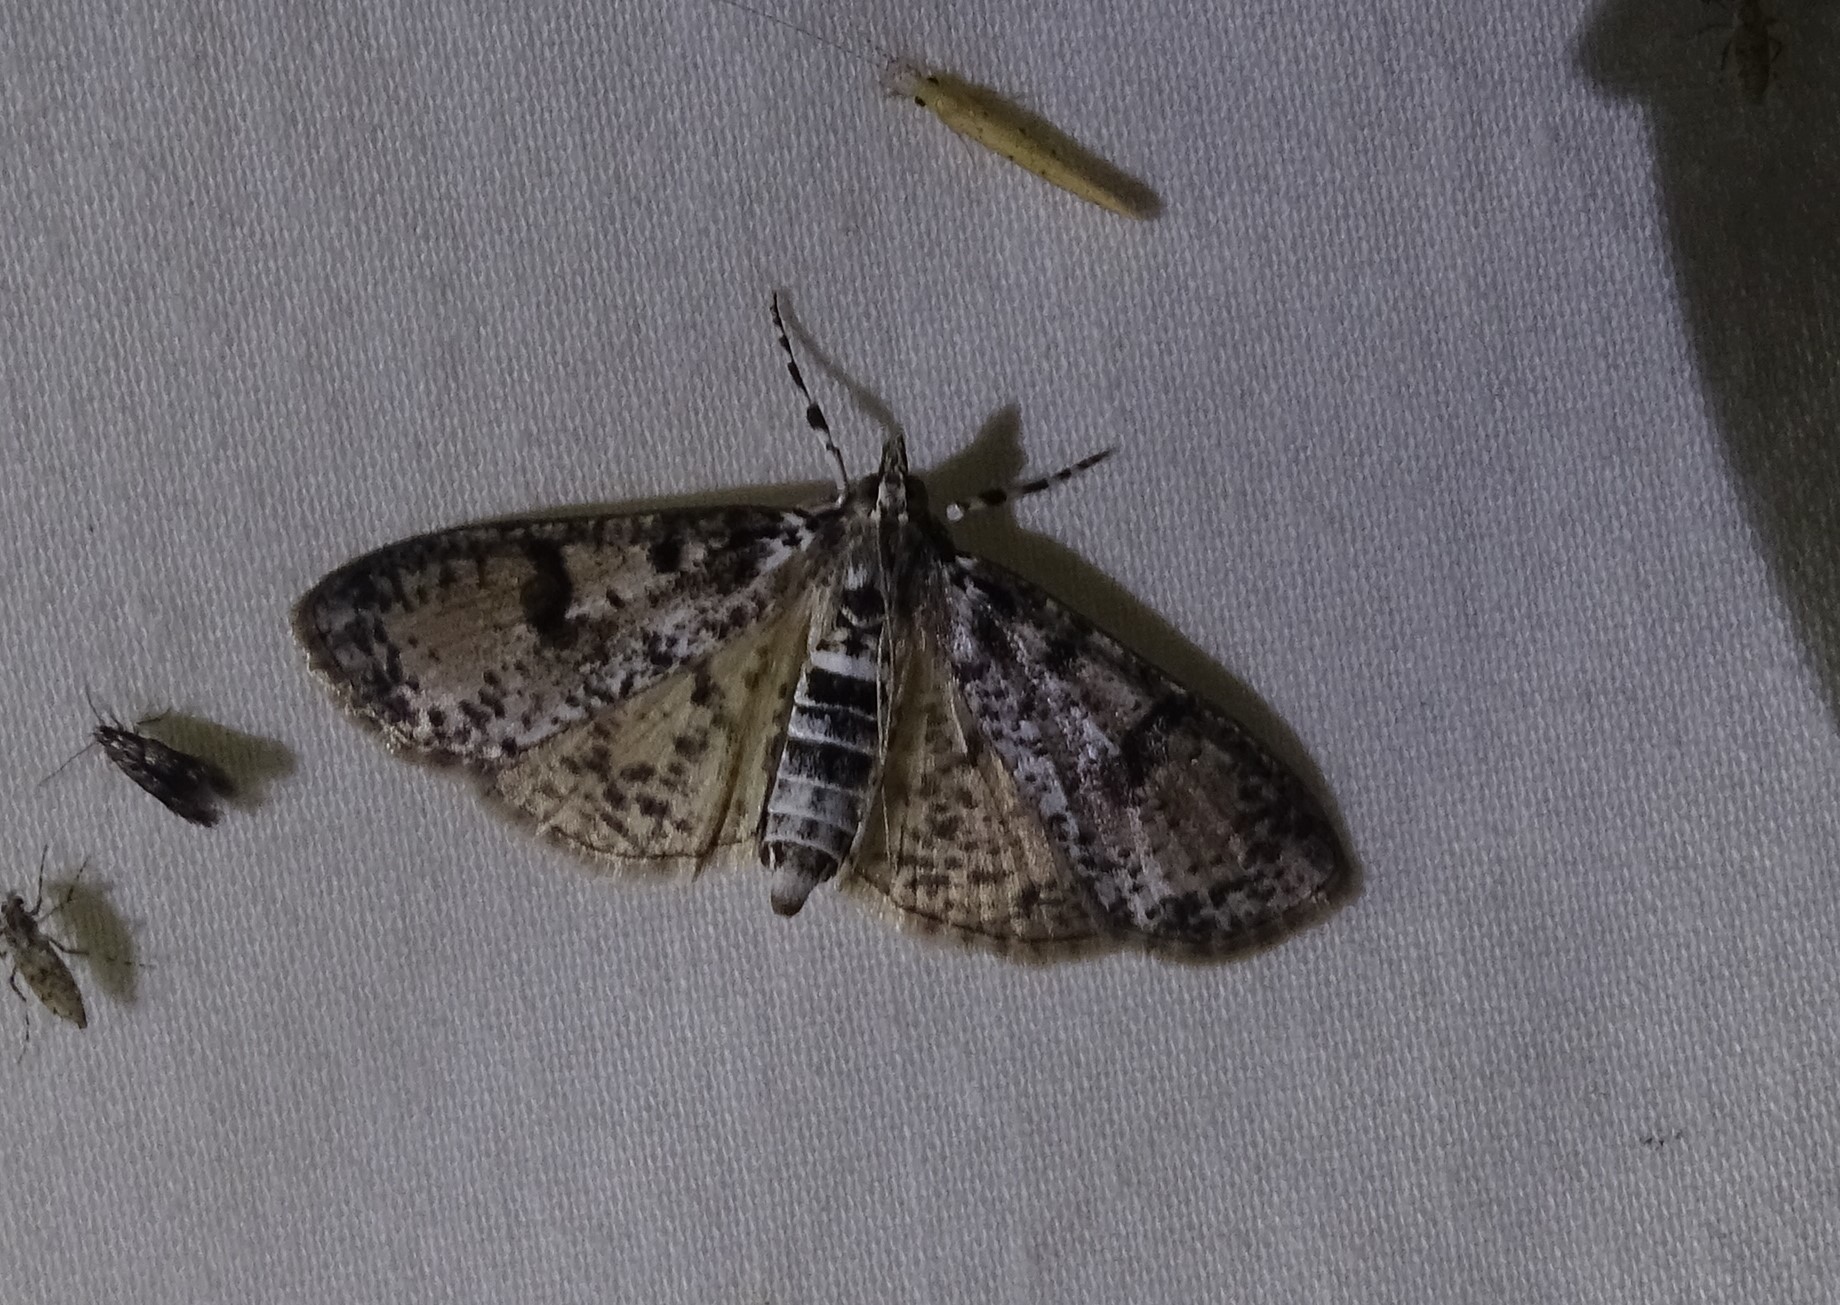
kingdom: Animalia
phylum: Arthropoda
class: Insecta
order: Lepidoptera
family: Crambidae
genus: Palpita
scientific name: Palpita magniferalis
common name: Splendid palpita moth
